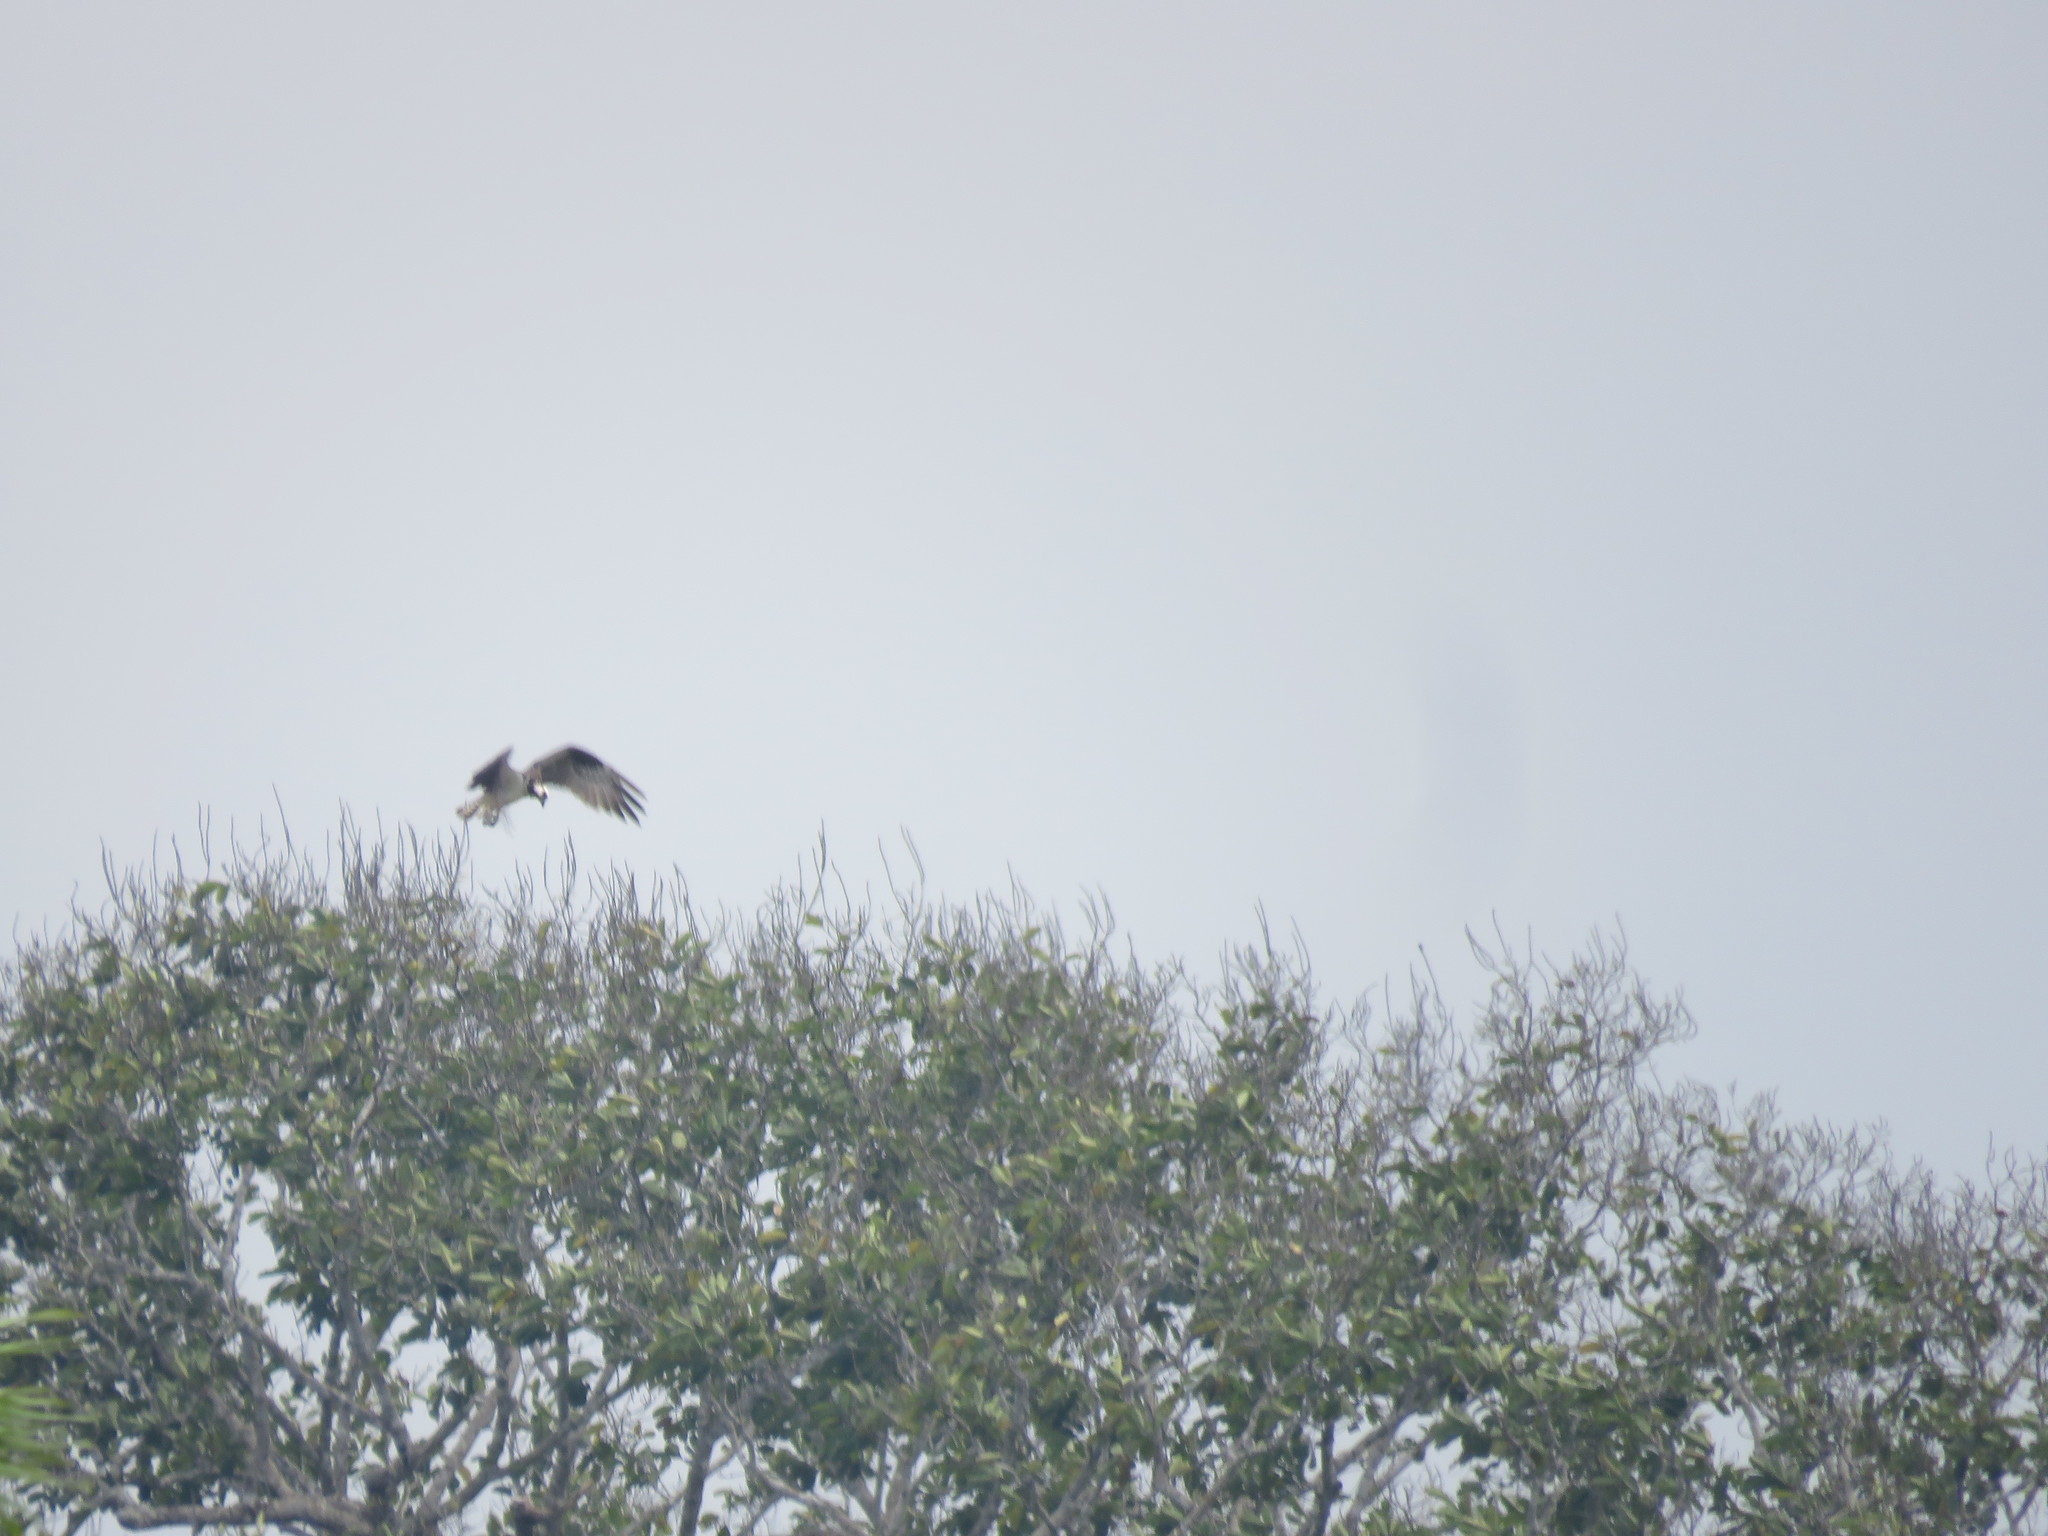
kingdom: Animalia
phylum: Chordata
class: Aves
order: Accipitriformes
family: Pandionidae
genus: Pandion
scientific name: Pandion haliaetus
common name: Osprey
